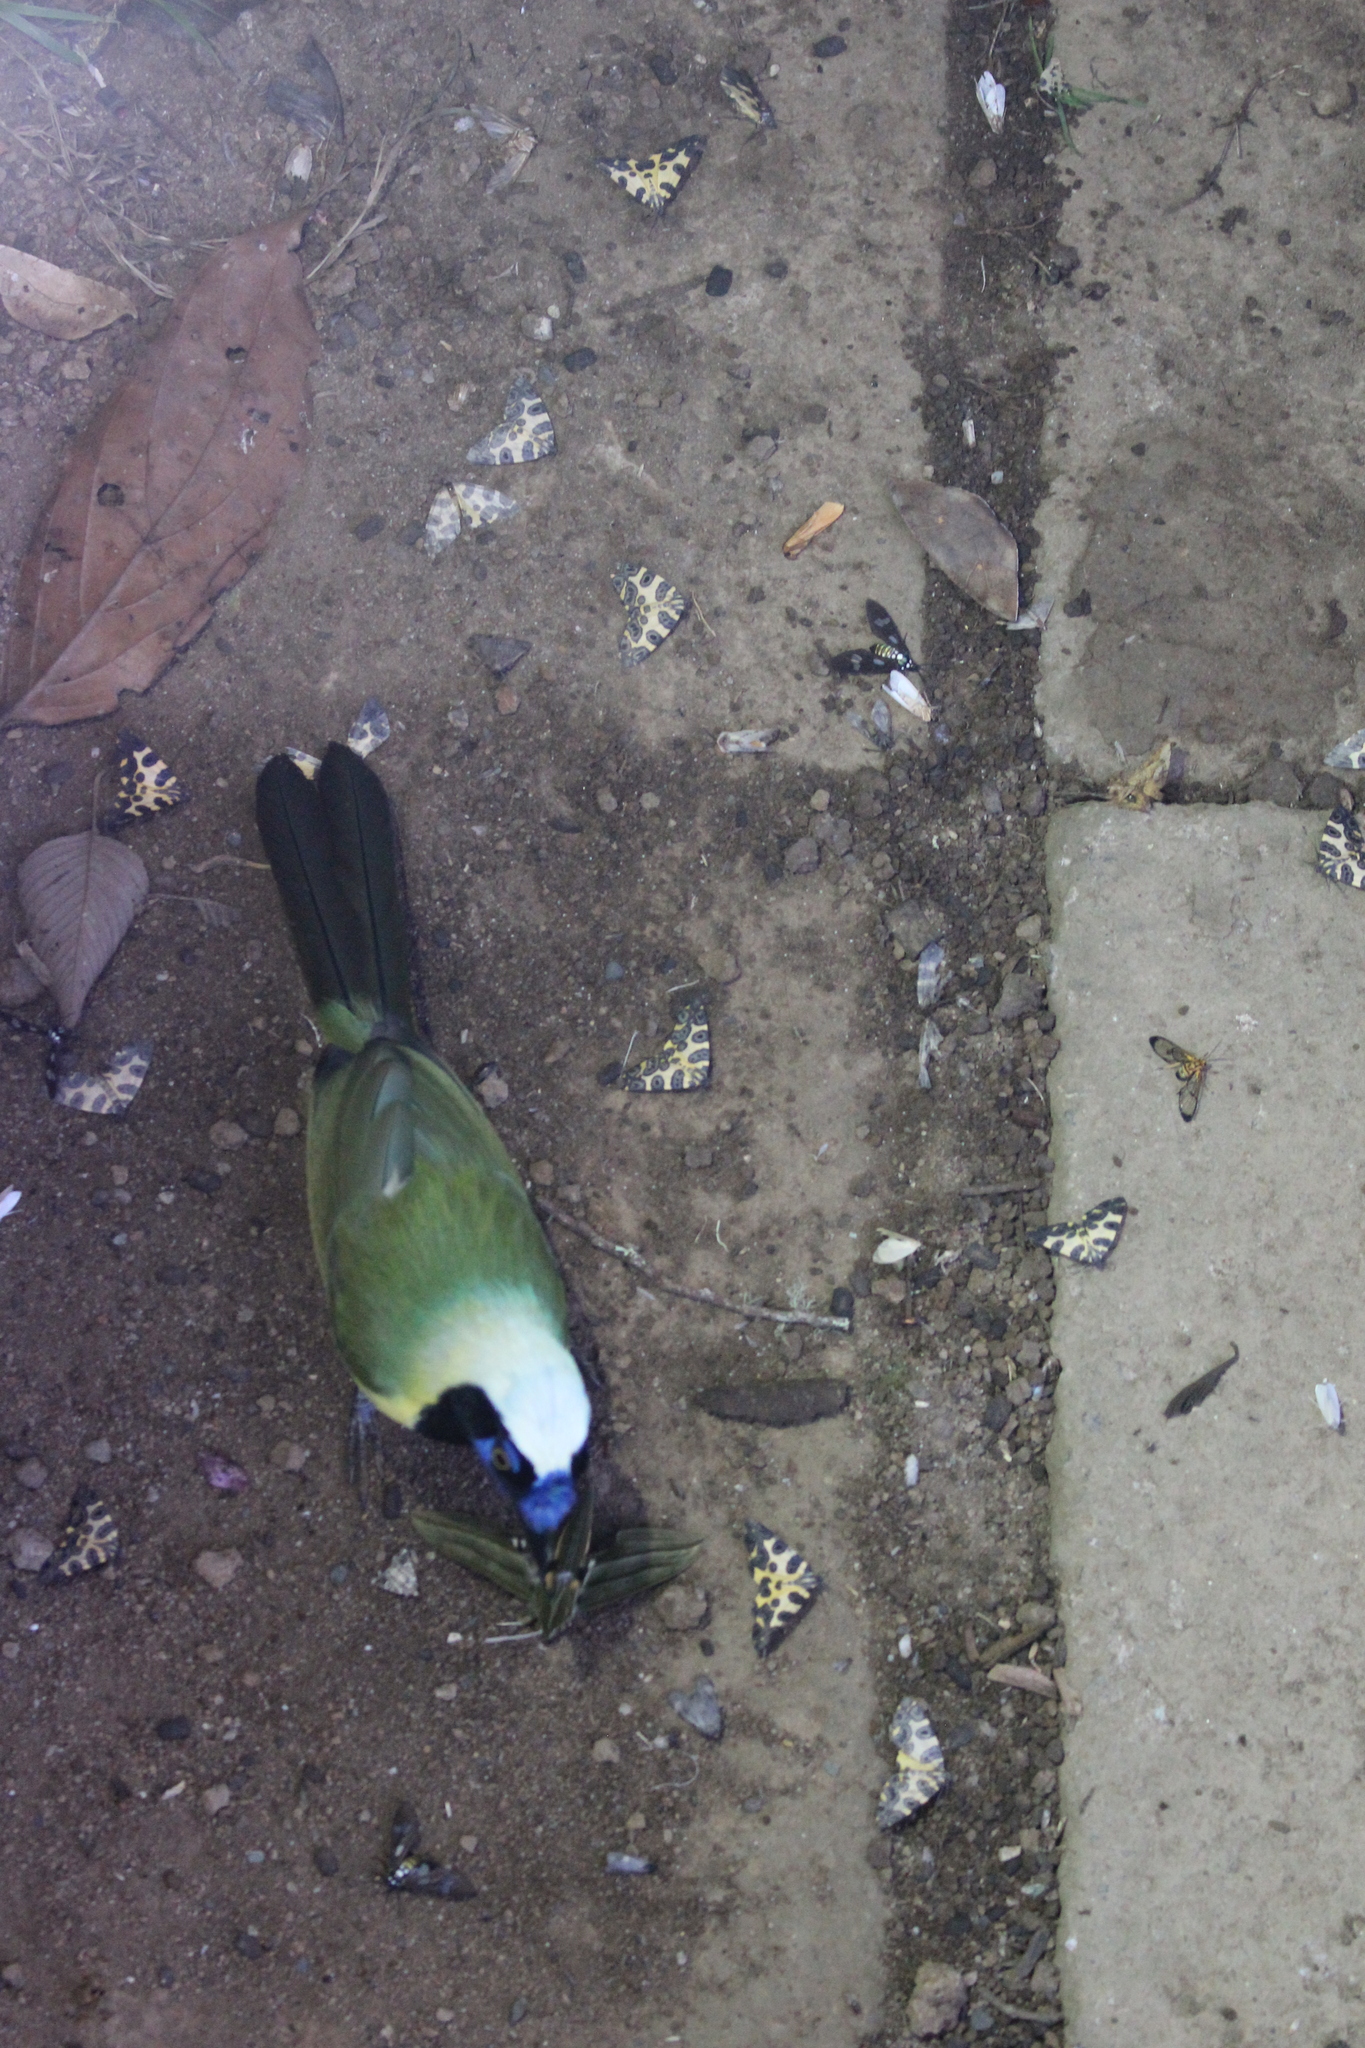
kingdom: Animalia
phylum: Chordata
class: Aves
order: Passeriformes
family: Corvidae
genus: Cyanocorax
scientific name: Cyanocorax yncas
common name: Green jay
